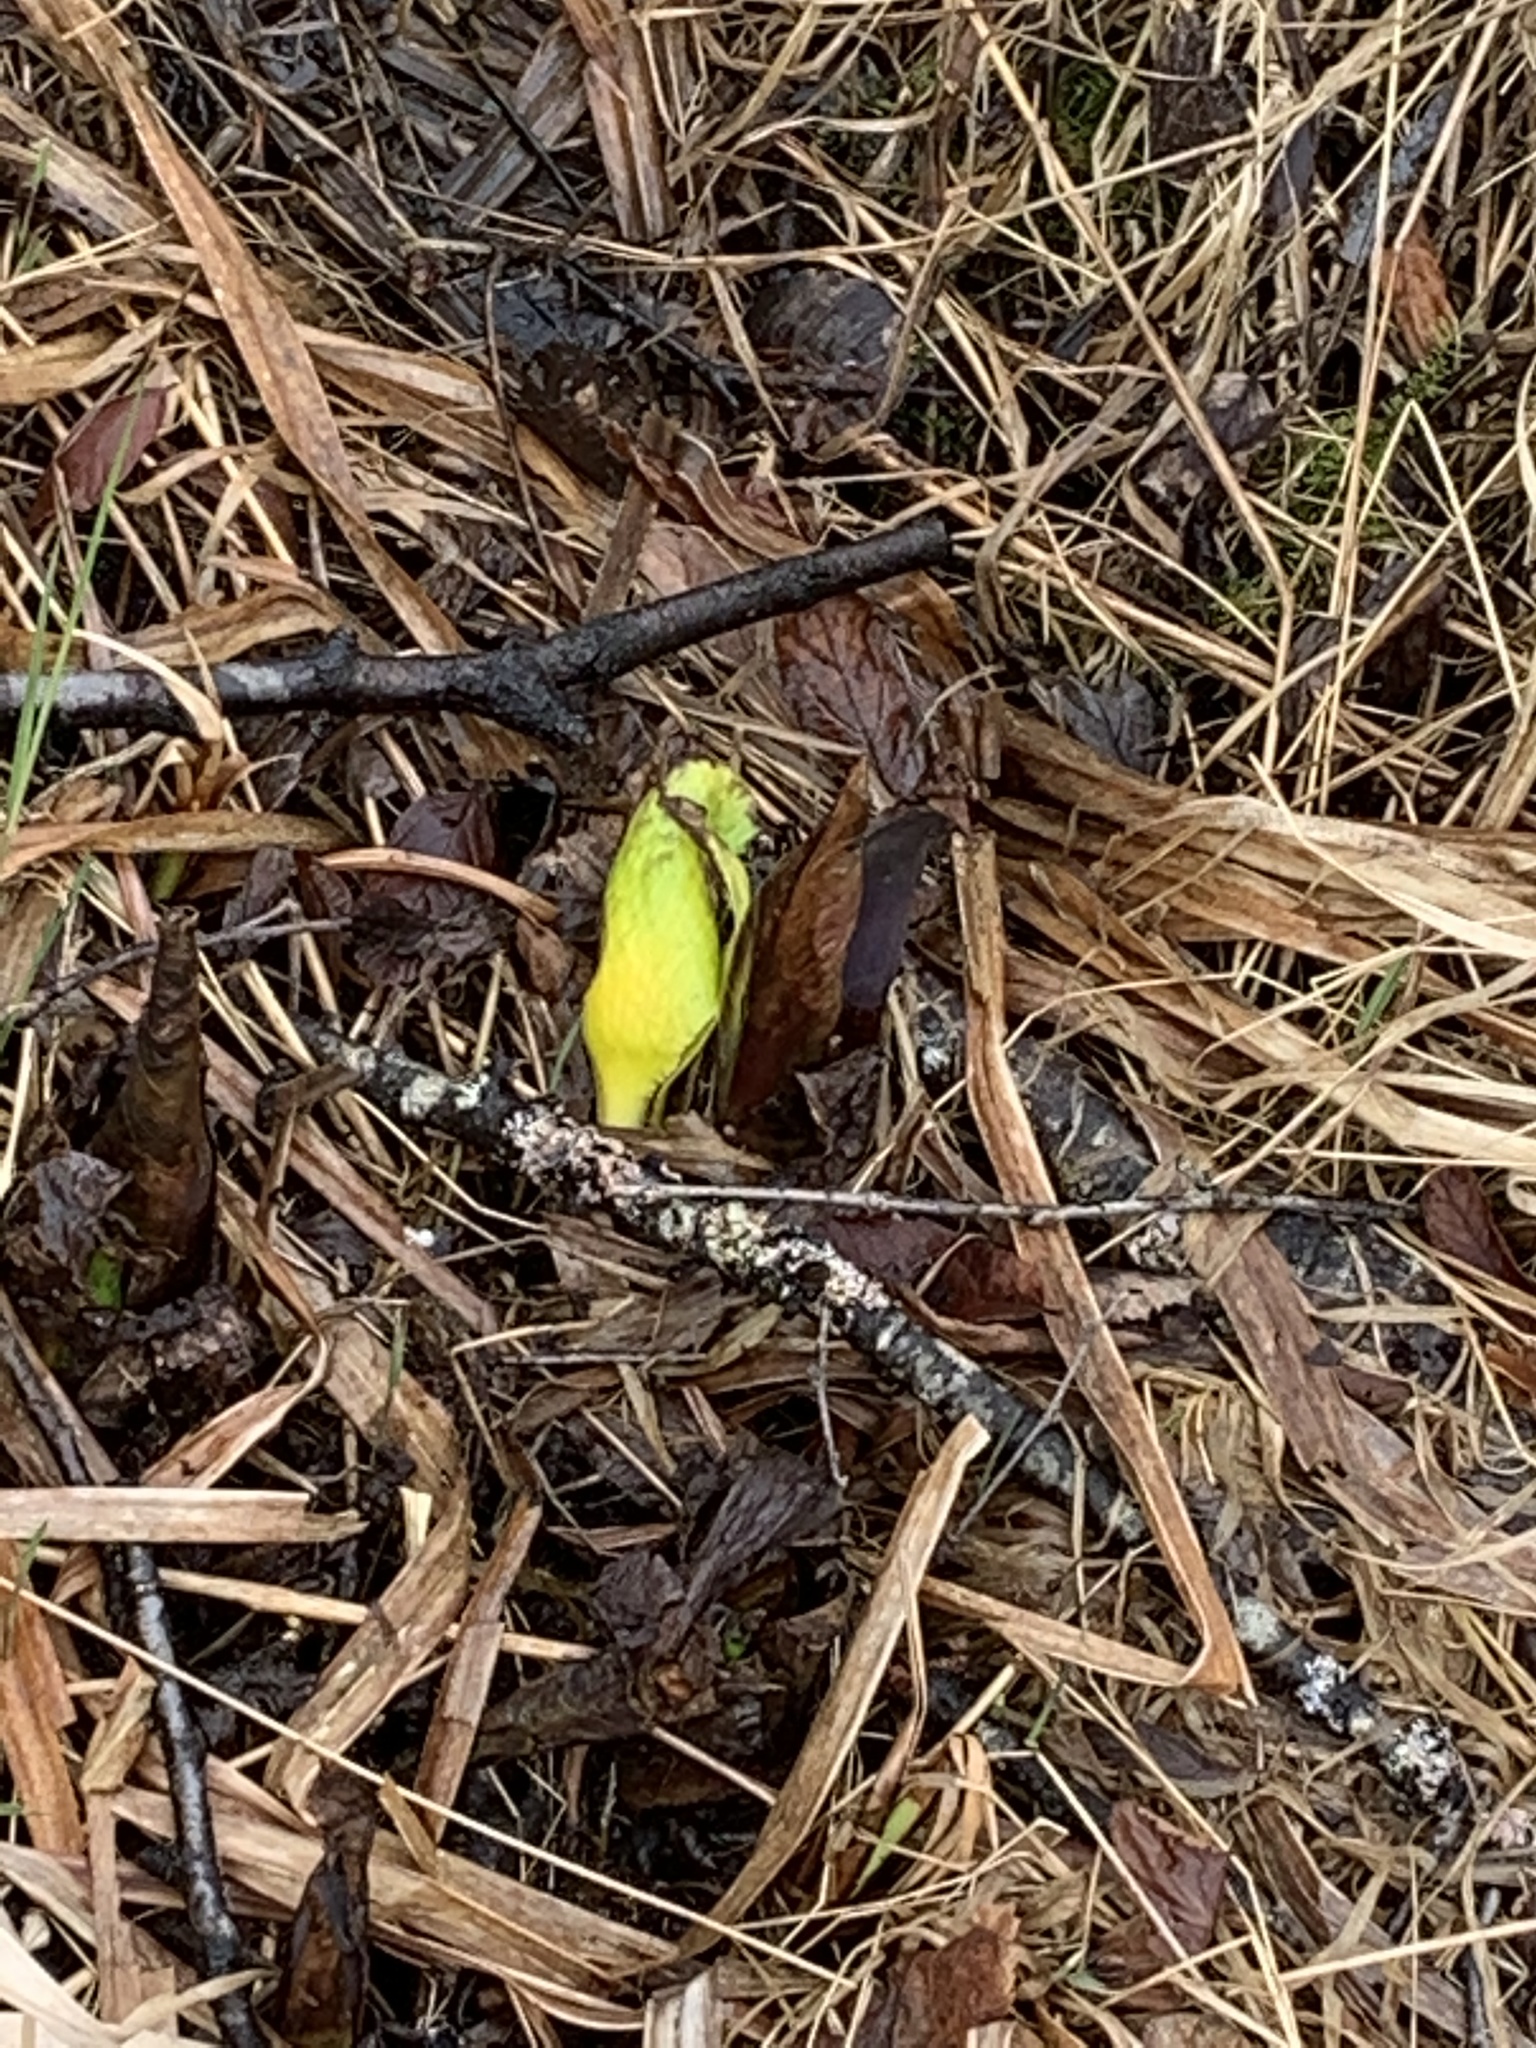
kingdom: Plantae
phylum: Tracheophyta
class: Liliopsida
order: Alismatales
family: Araceae
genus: Lysichiton
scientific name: Lysichiton americanus
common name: American skunk cabbage
